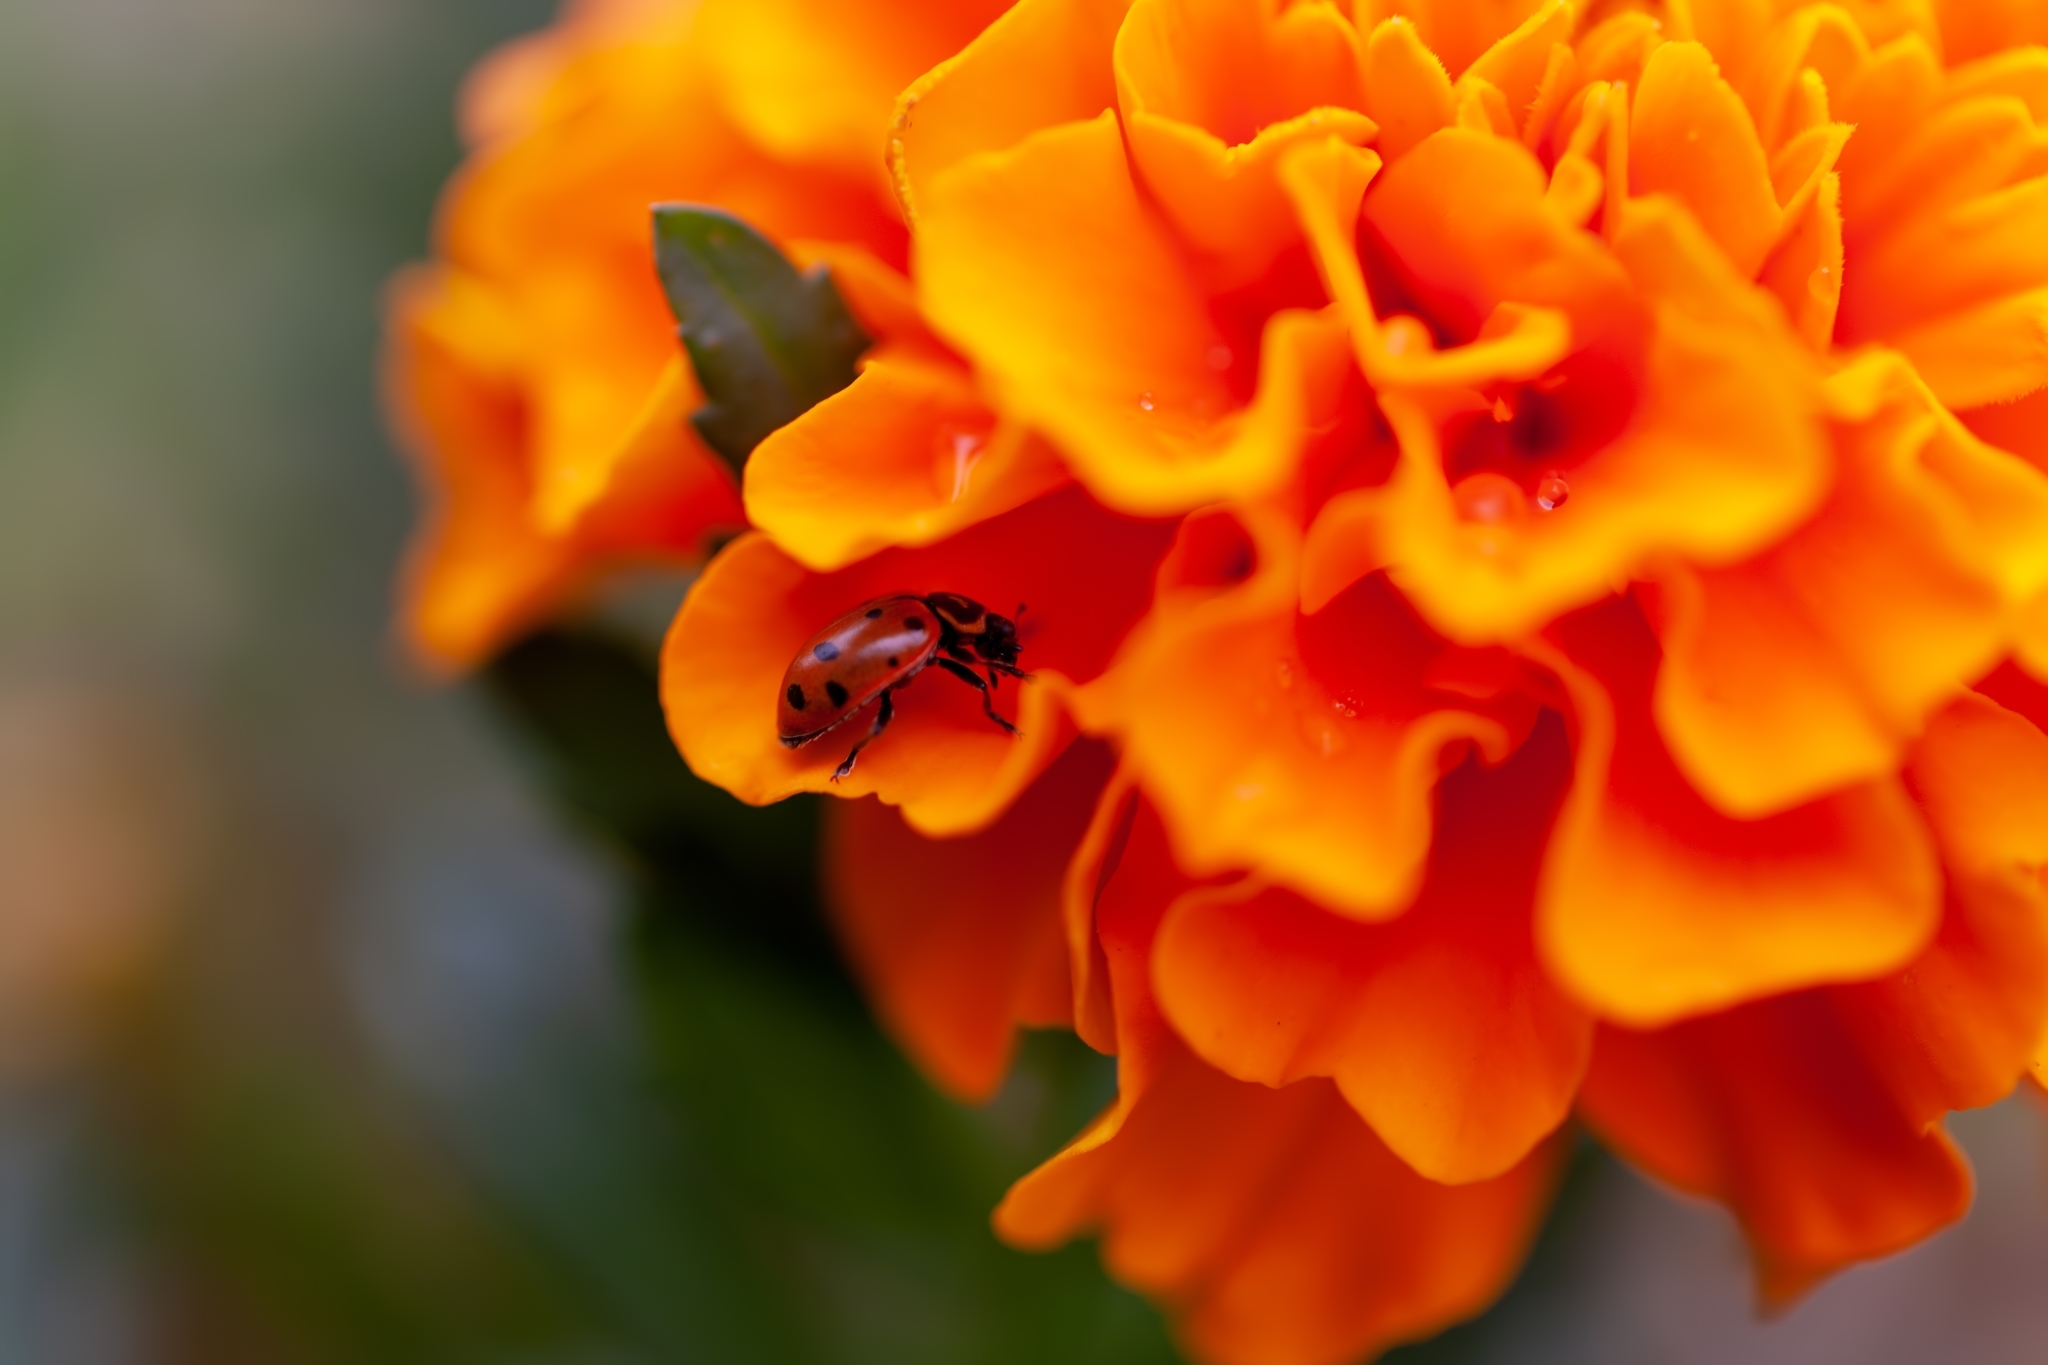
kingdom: Animalia
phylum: Arthropoda
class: Insecta
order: Coleoptera
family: Coccinellidae
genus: Hippodamia
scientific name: Hippodamia convergens
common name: Convergent lady beetle
